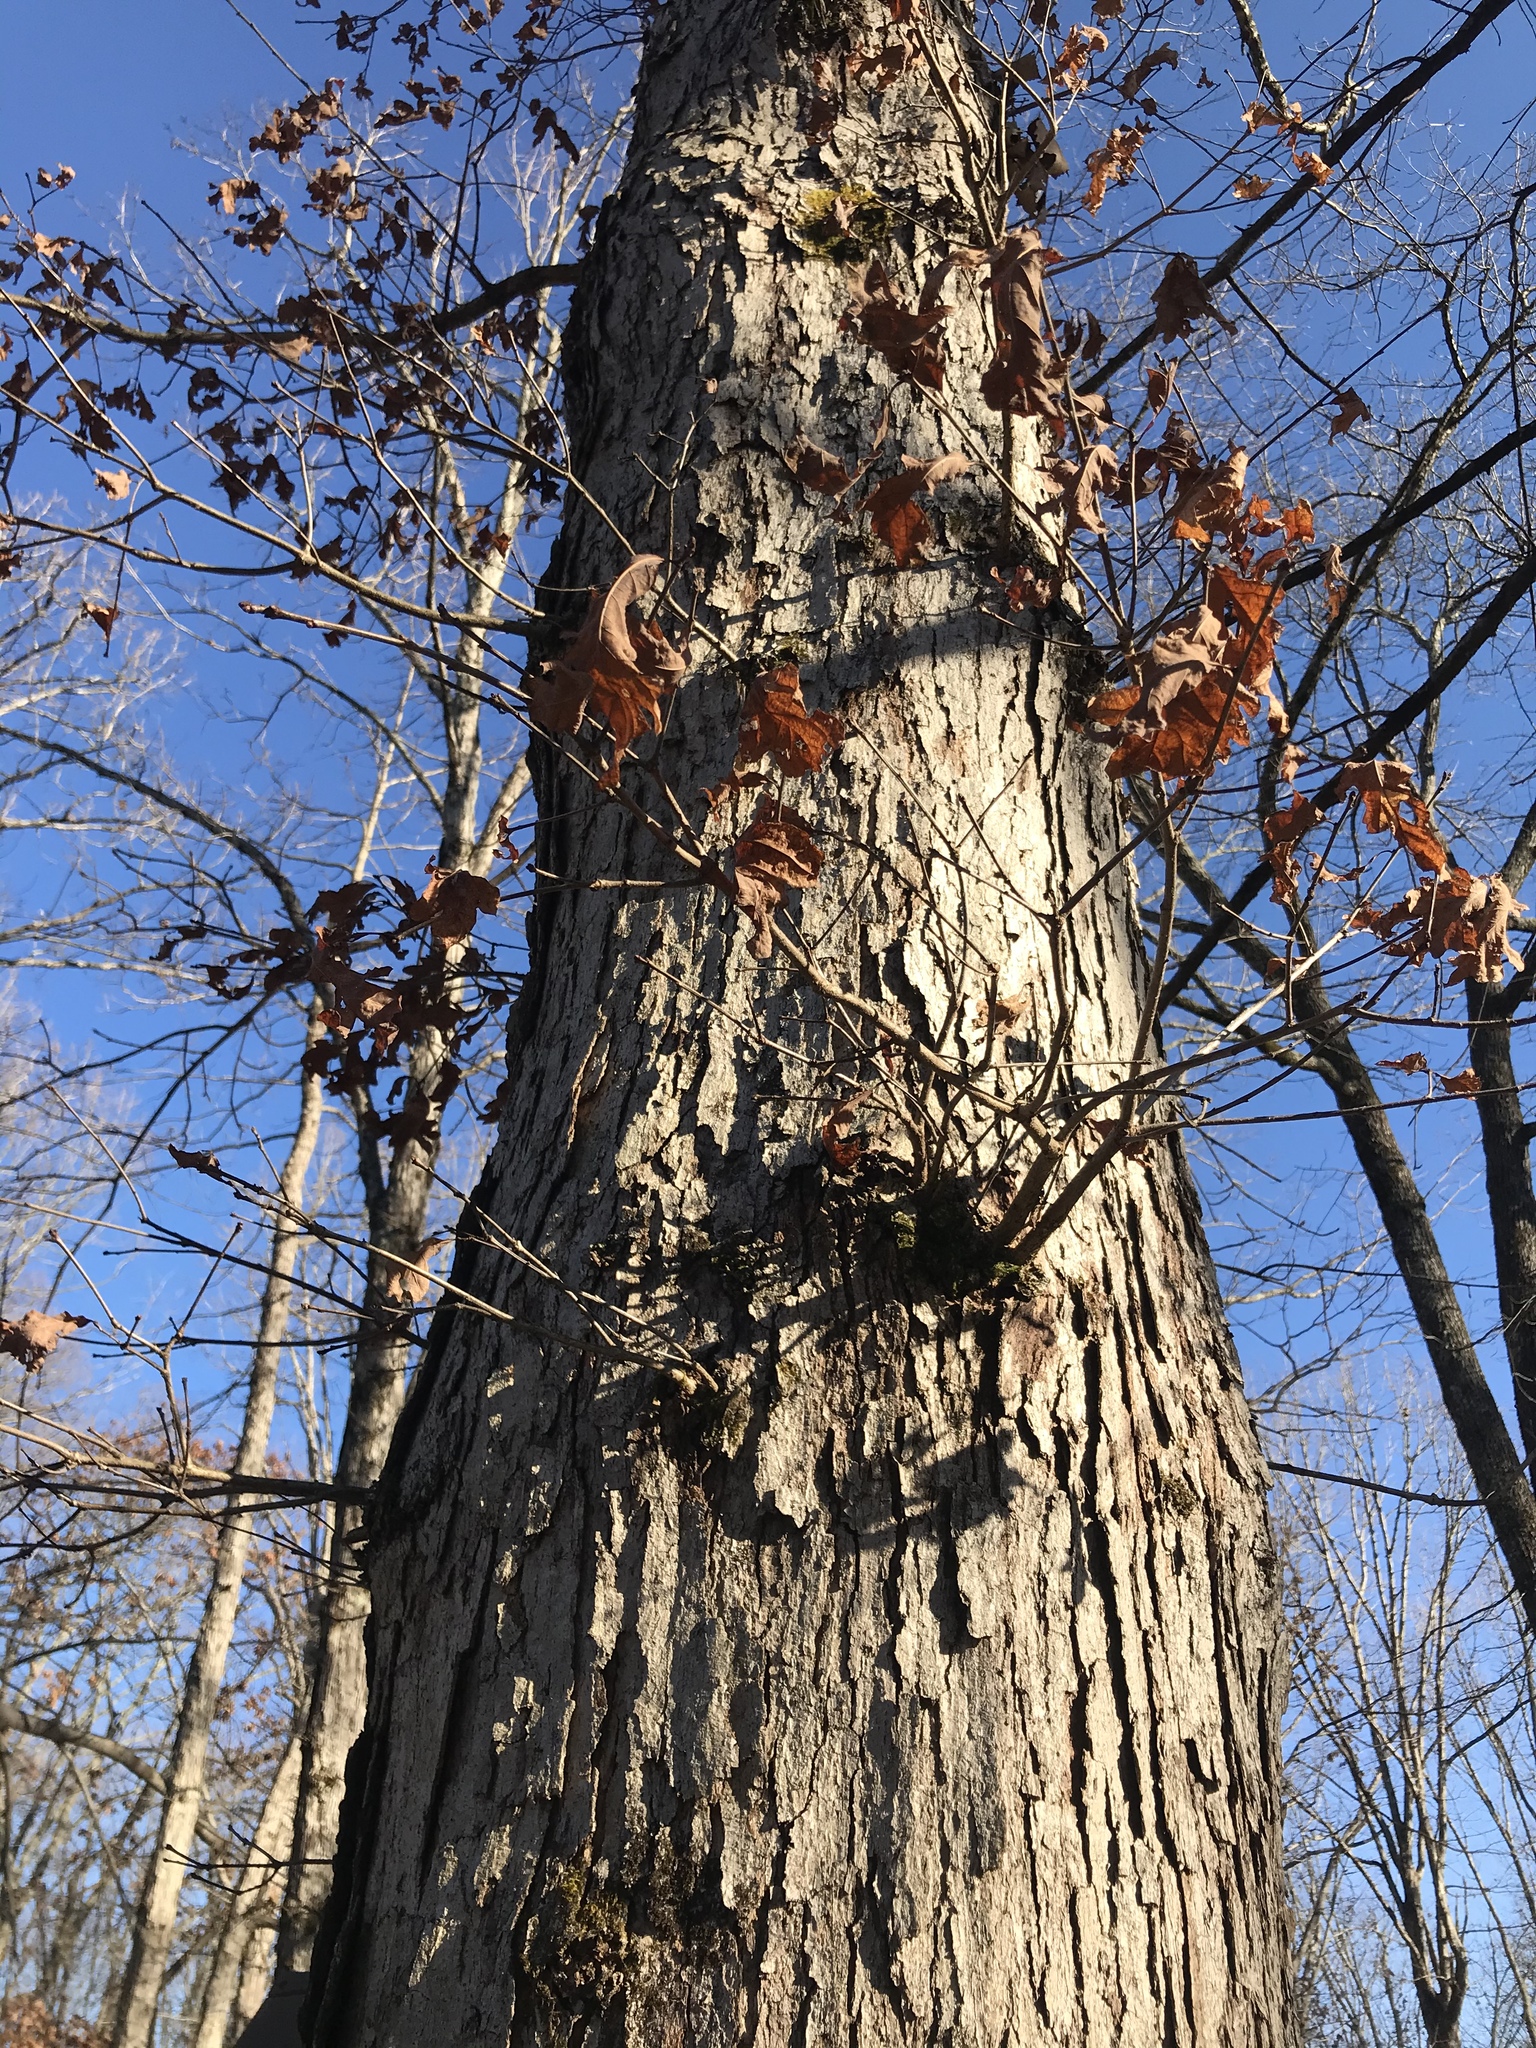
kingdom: Plantae
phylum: Tracheophyta
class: Magnoliopsida
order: Fagales
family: Fagaceae
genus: Quercus
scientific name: Quercus alba
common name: White oak
